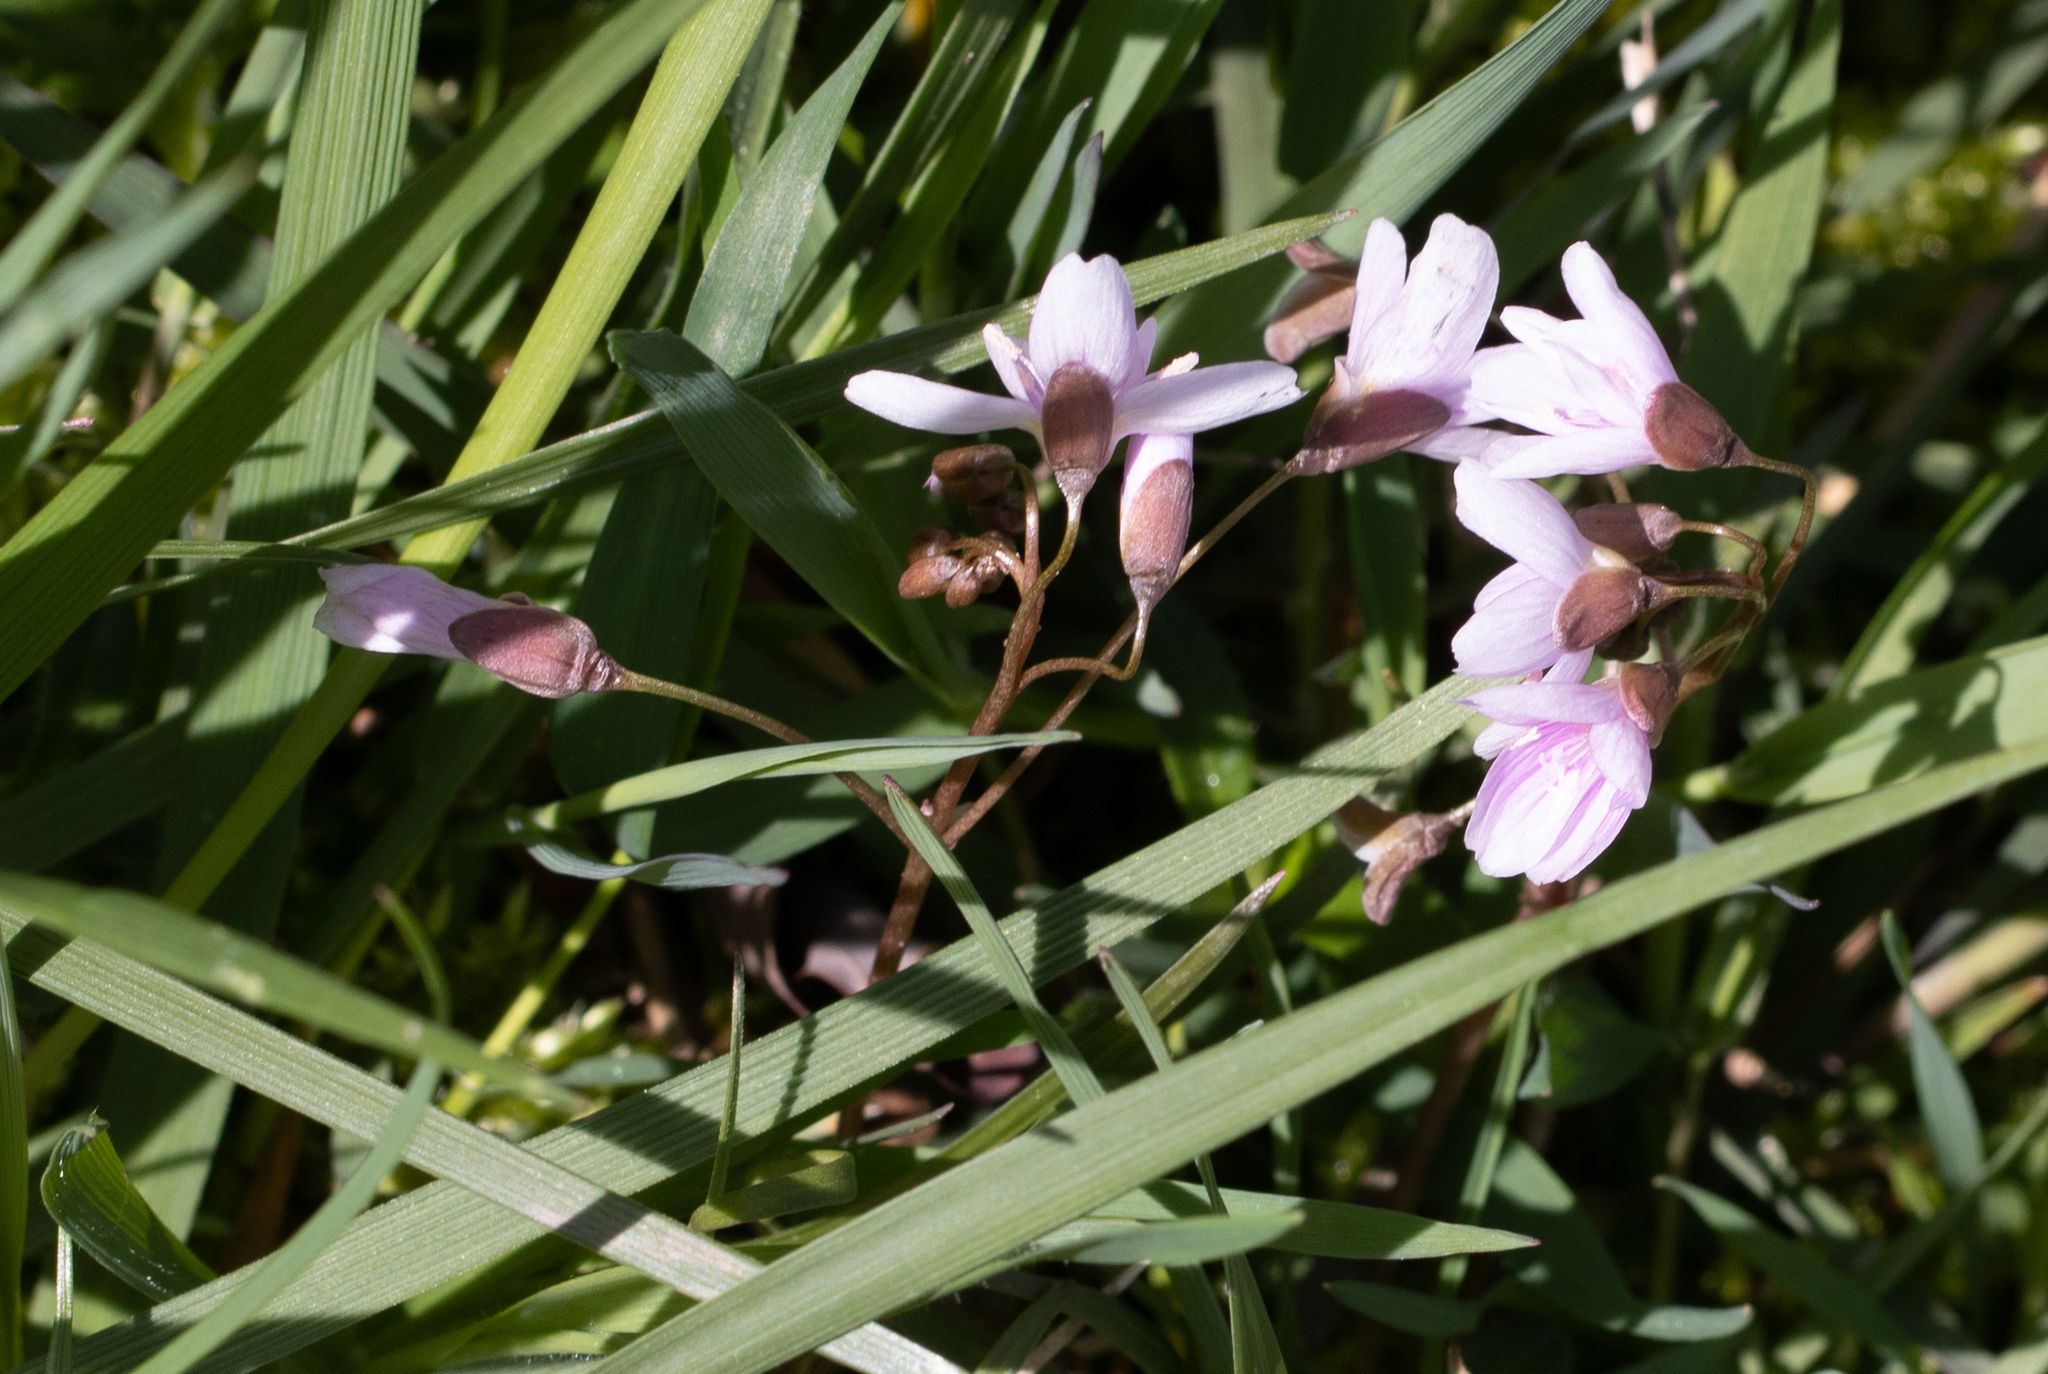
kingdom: Plantae
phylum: Tracheophyta
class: Magnoliopsida
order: Caryophyllales
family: Montiaceae
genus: Claytonia
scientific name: Claytonia virginica
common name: Virginia springbeauty
